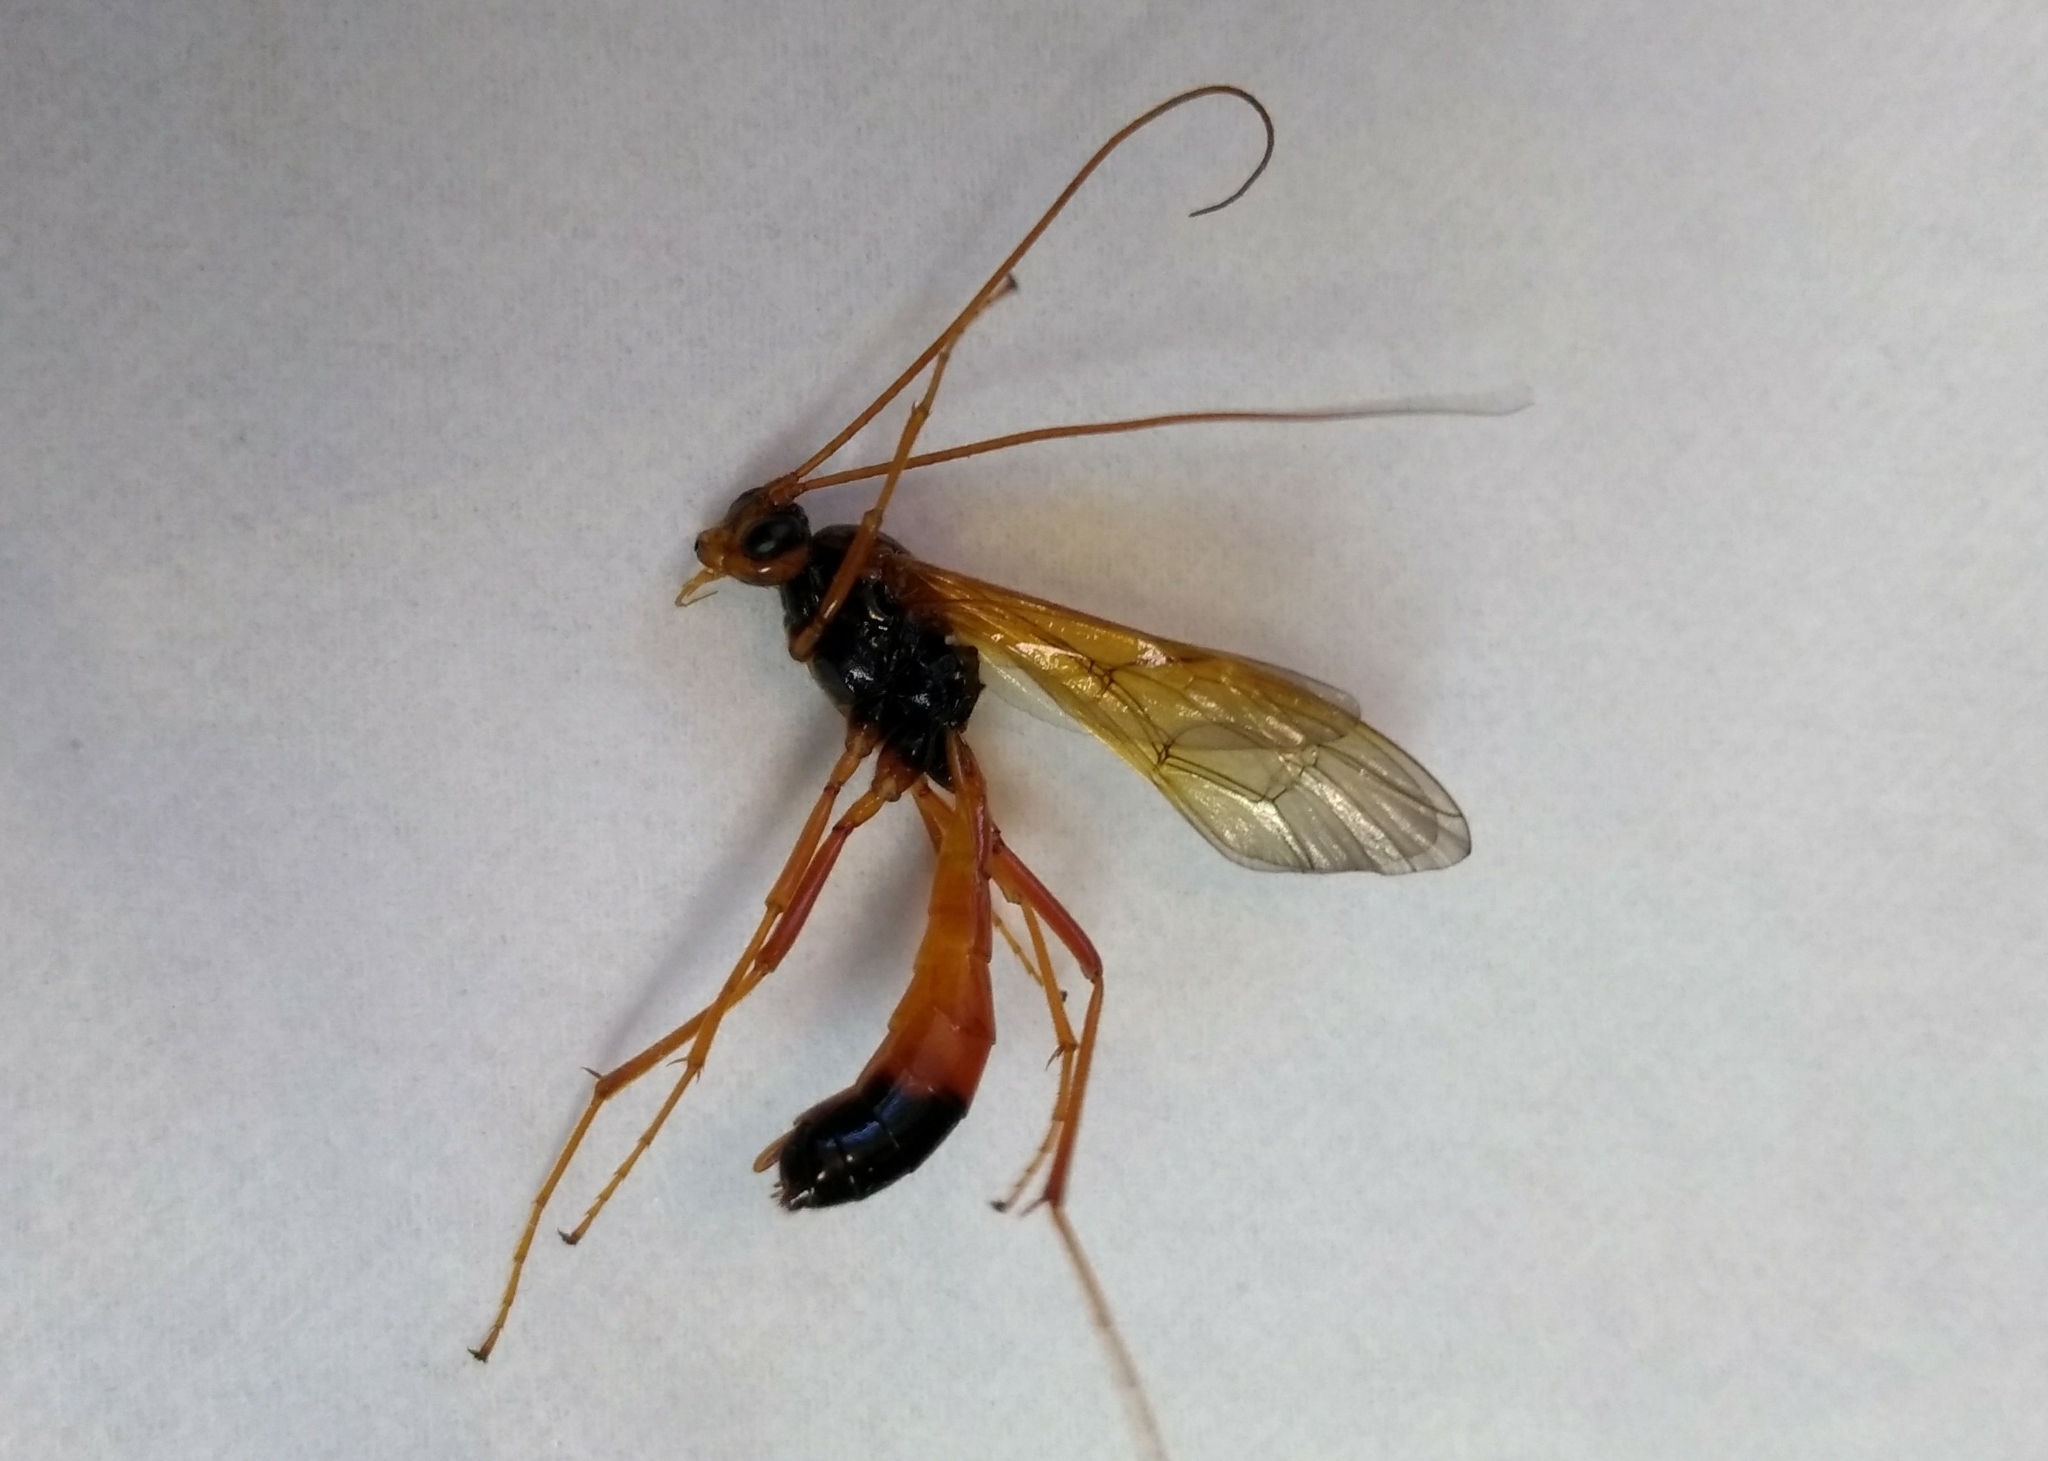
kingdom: Animalia
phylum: Arthropoda
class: Insecta
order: Hymenoptera
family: Ichneumonidae
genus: Opheltes
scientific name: Opheltes glaucopterus
